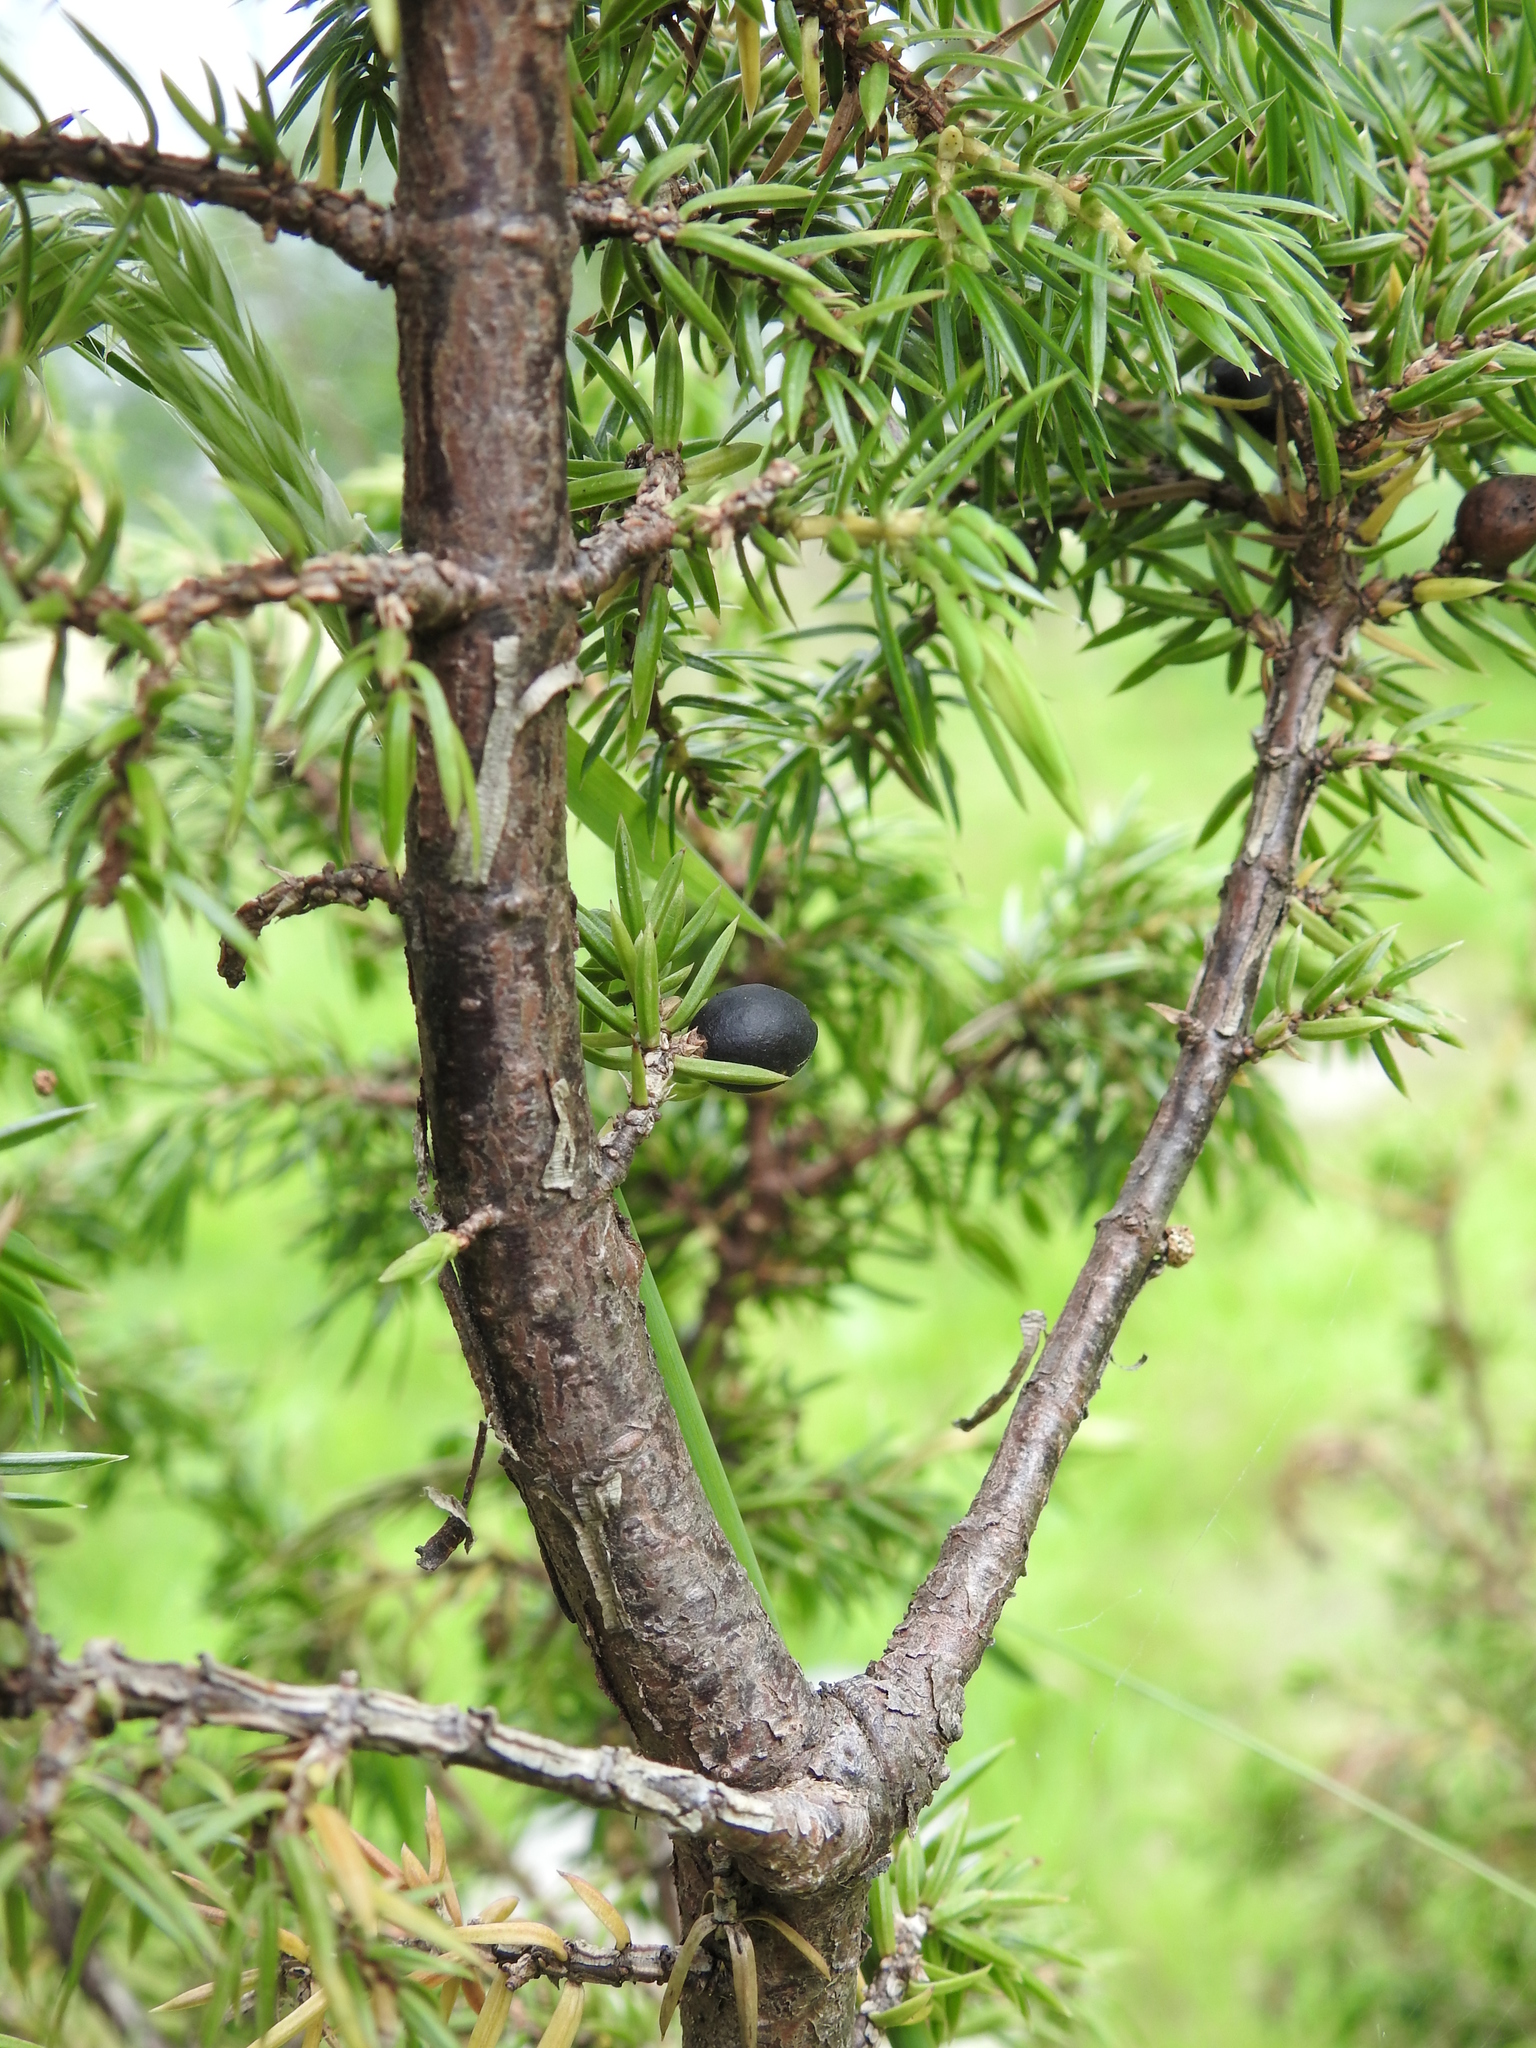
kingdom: Plantae
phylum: Tracheophyta
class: Pinopsida
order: Pinales
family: Cupressaceae
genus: Juniperus
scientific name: Juniperus communis
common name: Common juniper
